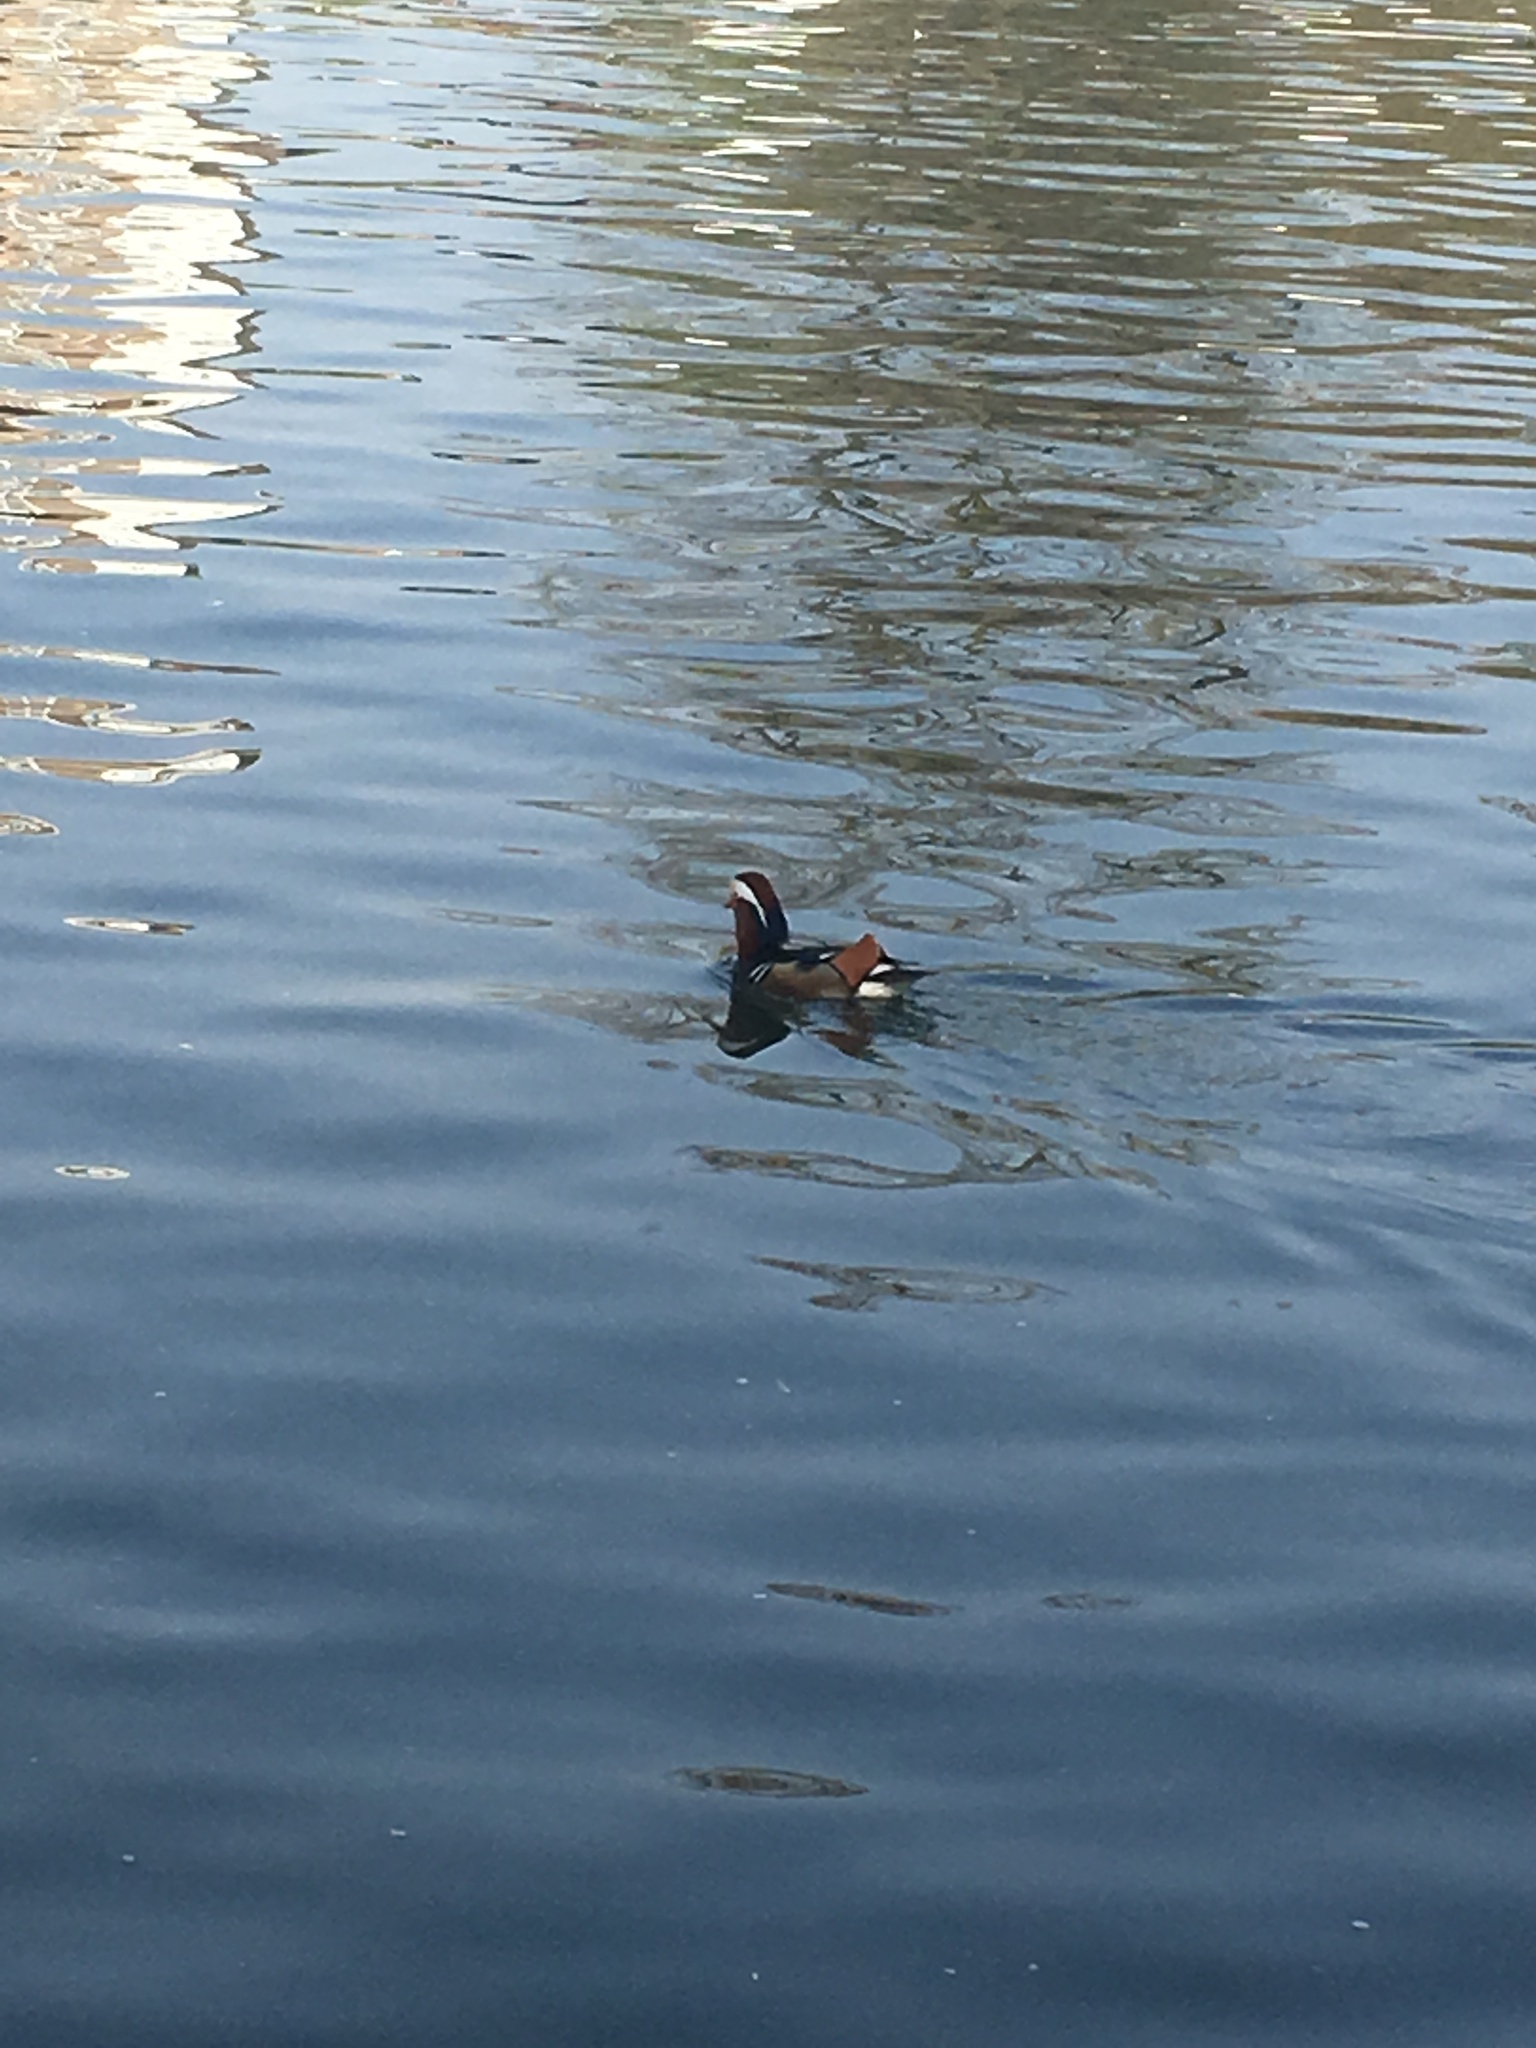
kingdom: Animalia
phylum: Chordata
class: Aves
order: Anseriformes
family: Anatidae
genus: Aix
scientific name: Aix galericulata
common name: Mandarin duck
